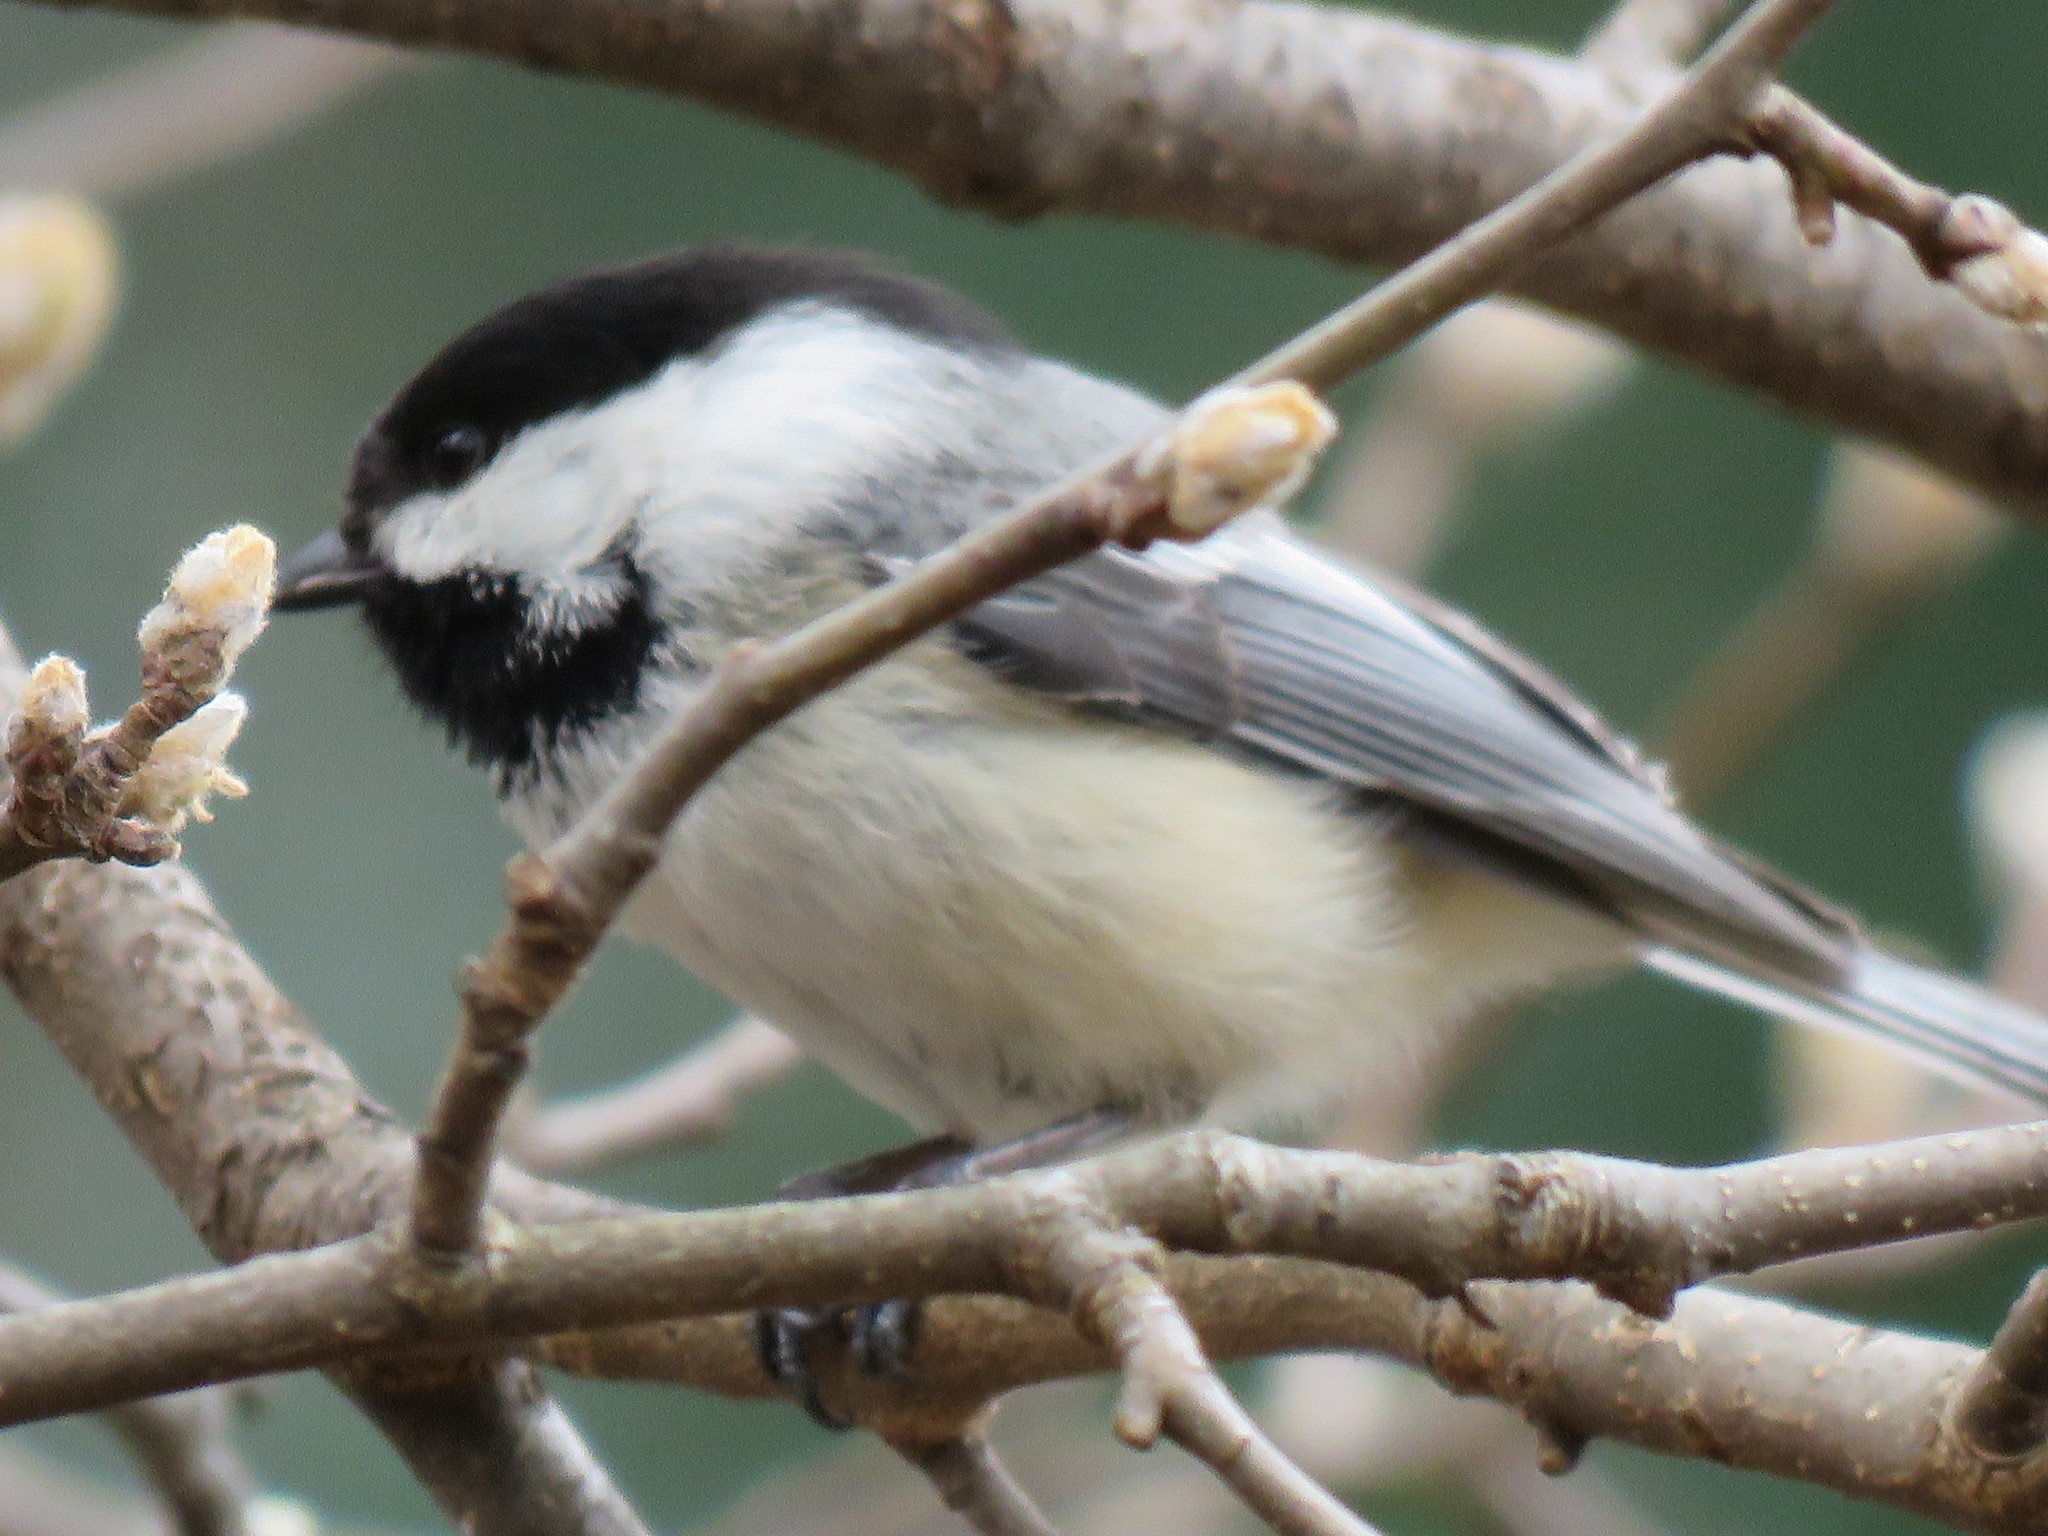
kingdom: Animalia
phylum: Chordata
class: Aves
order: Passeriformes
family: Paridae
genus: Poecile
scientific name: Poecile atricapillus
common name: Black-capped chickadee
